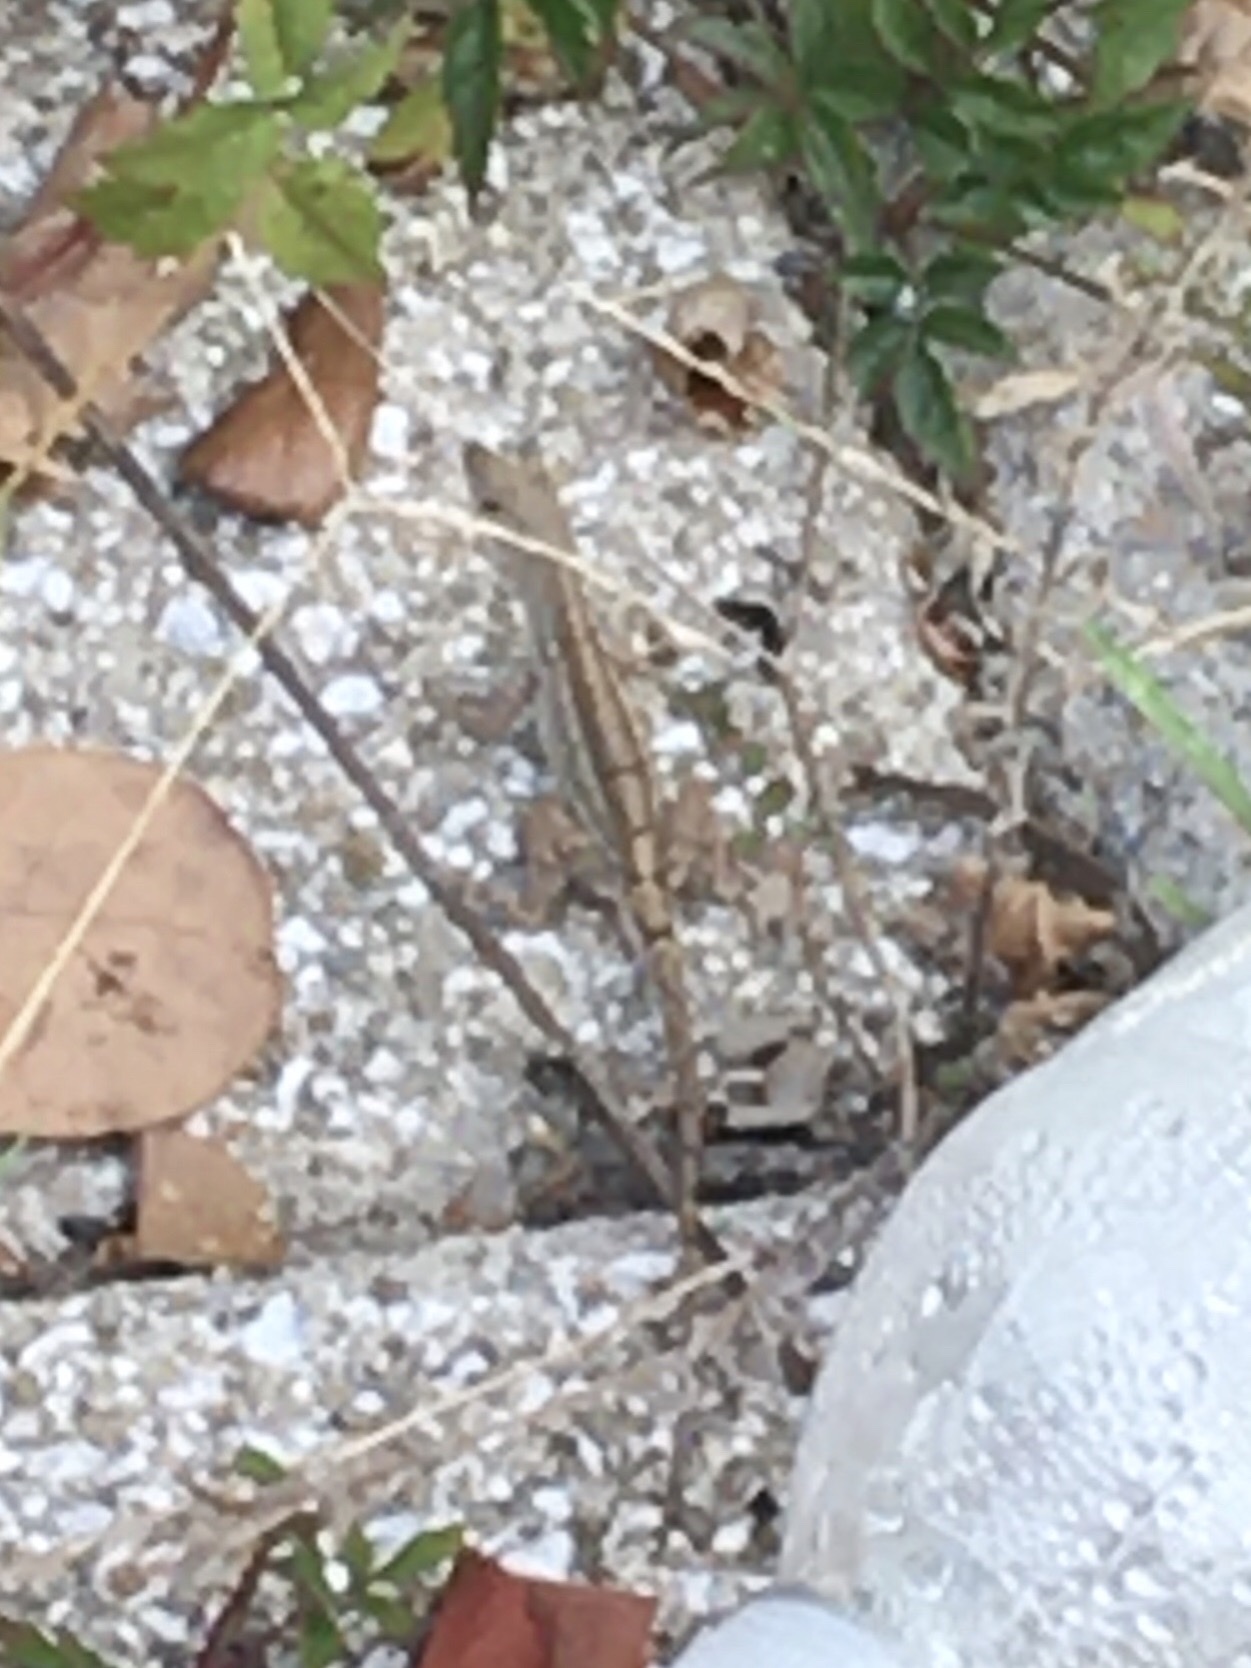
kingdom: Animalia
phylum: Chordata
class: Squamata
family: Dactyloidae
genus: Anolis
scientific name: Anolis sagrei
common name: Brown anole
